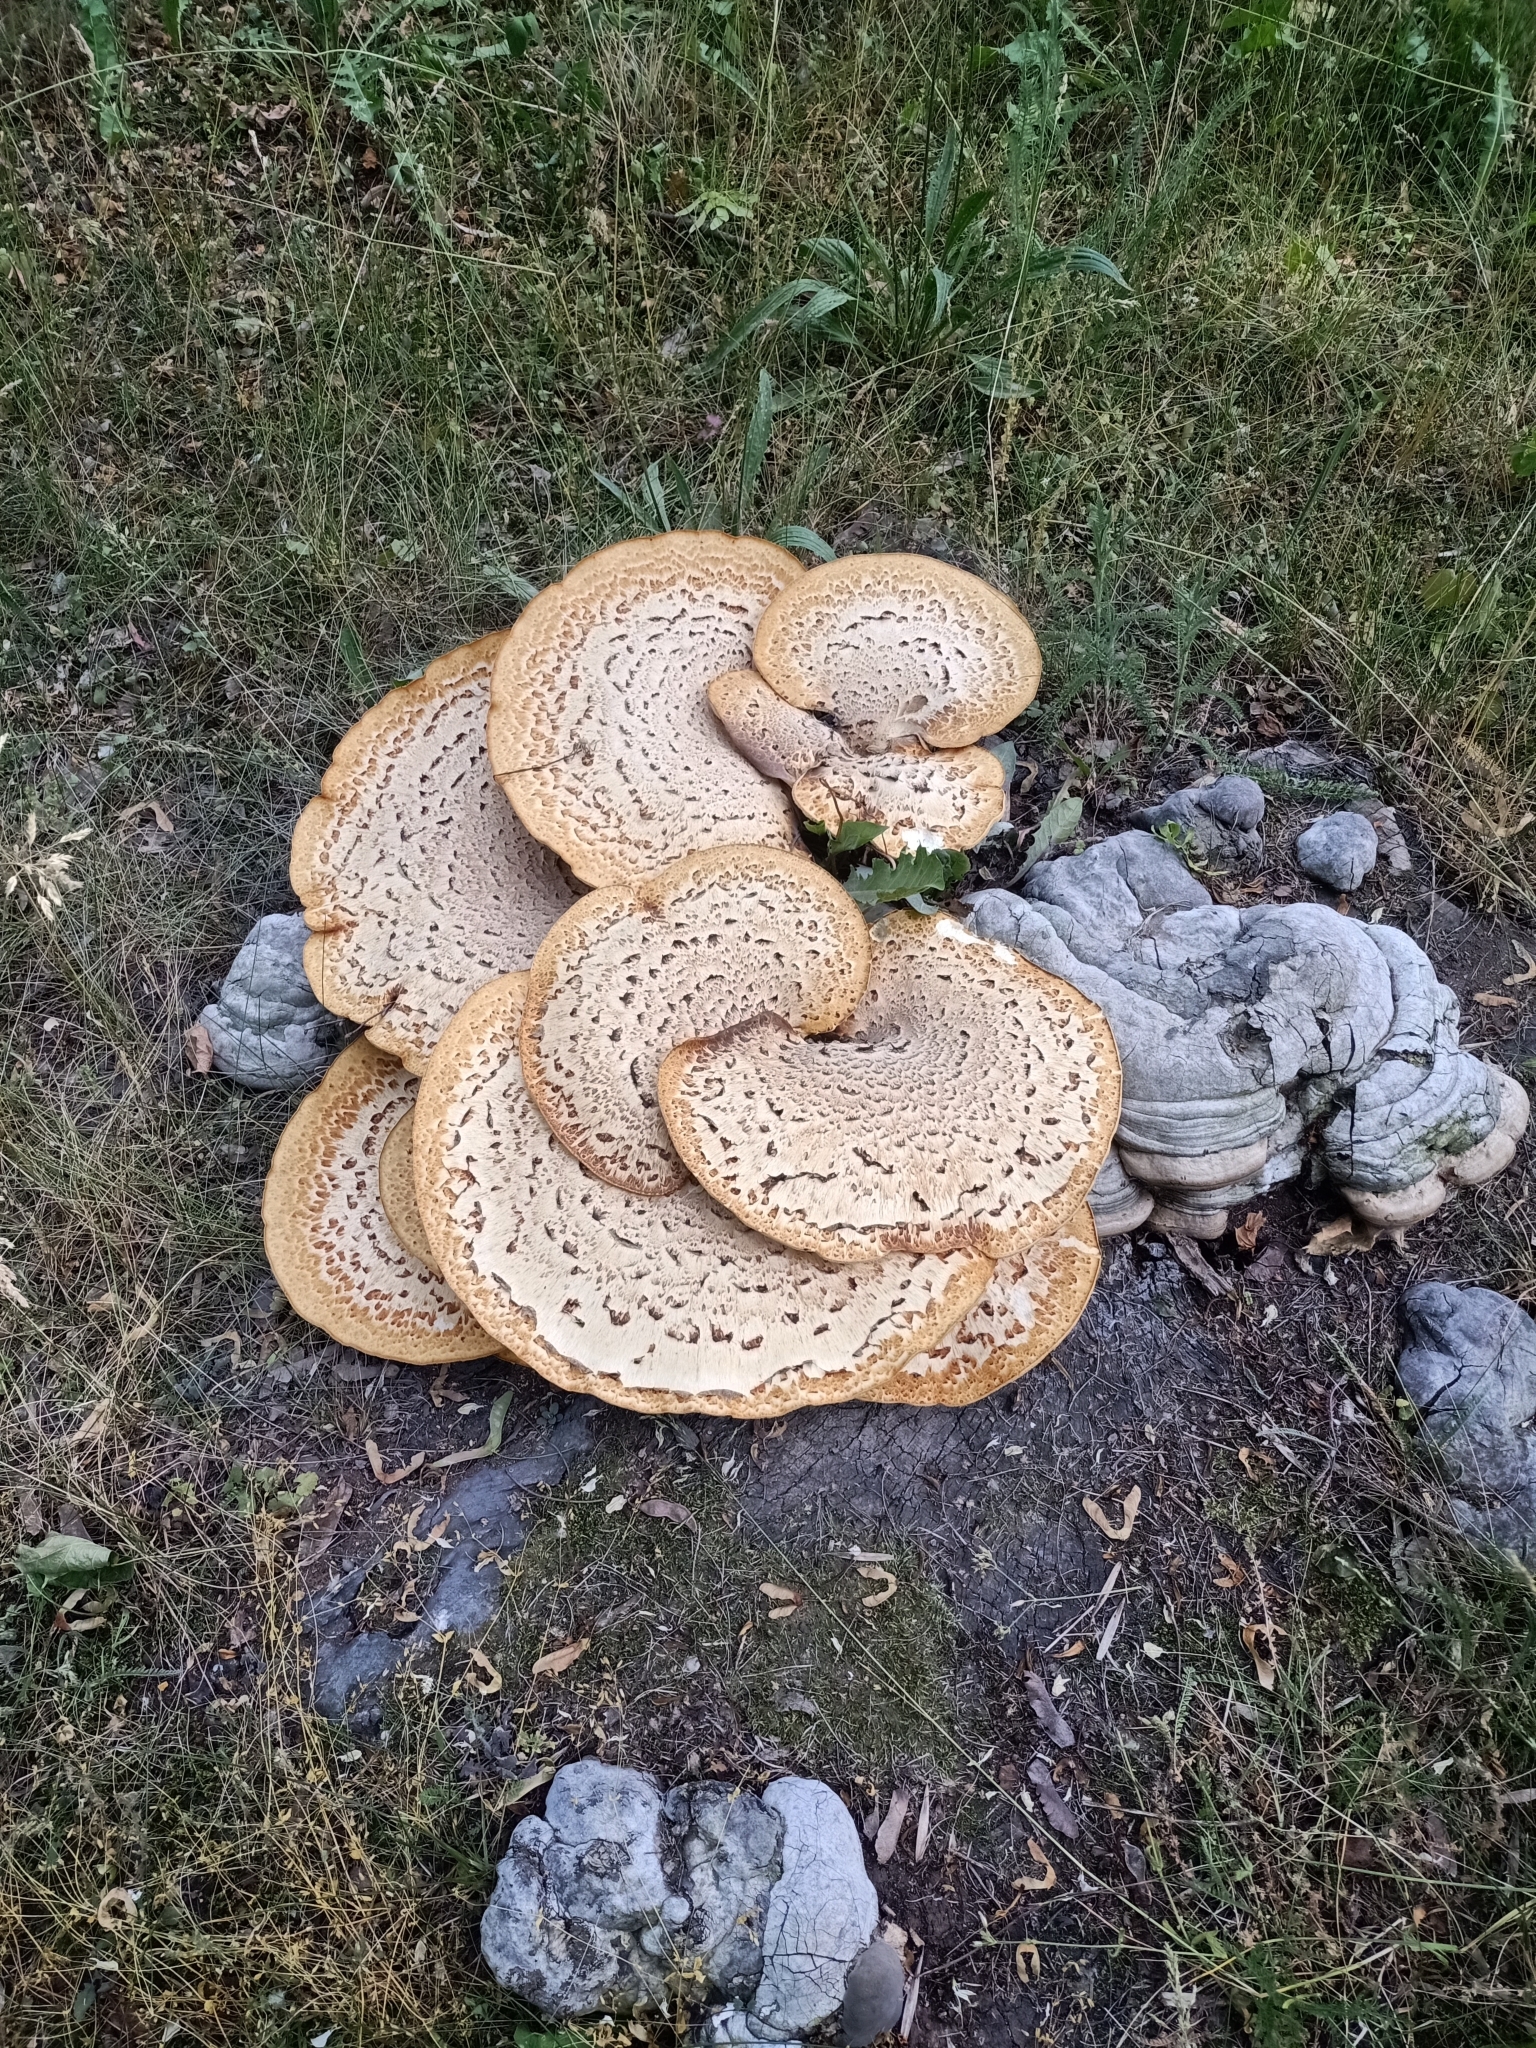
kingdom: Fungi
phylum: Basidiomycota
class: Agaricomycetes
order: Polyporales
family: Polyporaceae
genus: Cerioporus
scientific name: Cerioporus squamosus
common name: Dryad's saddle
